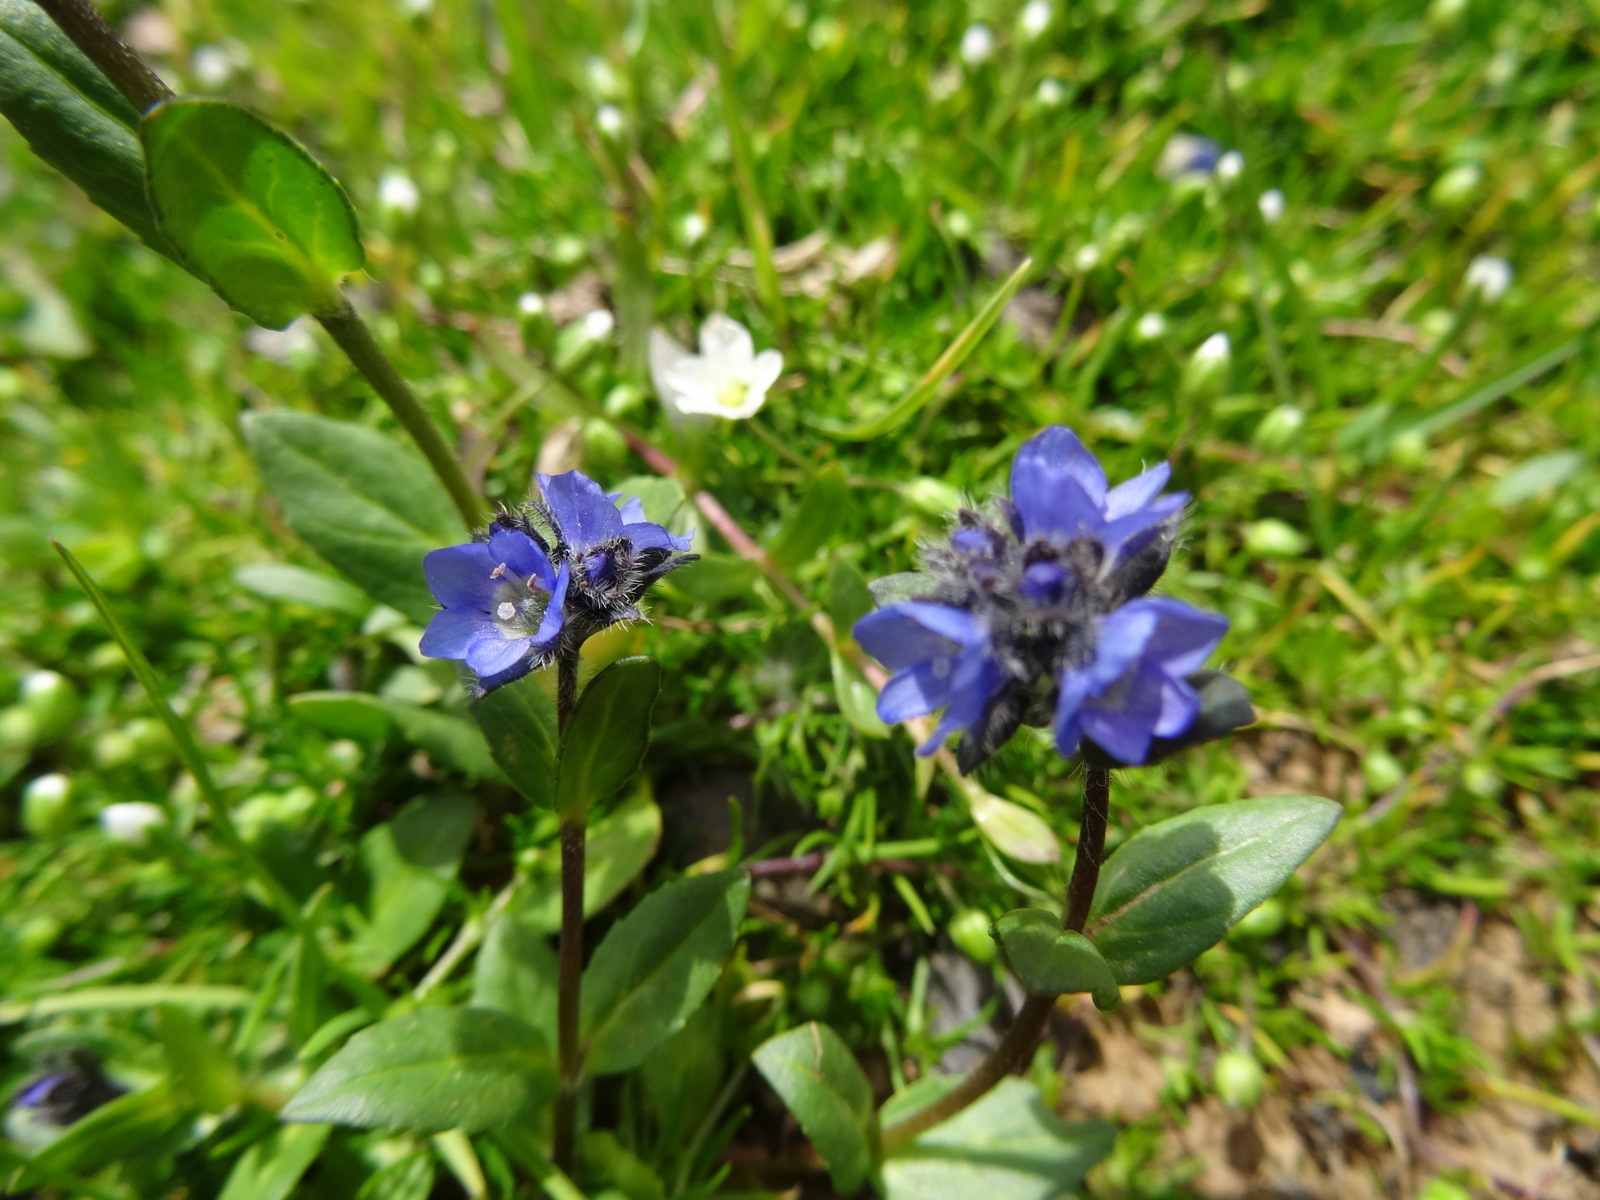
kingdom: Plantae
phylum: Tracheophyta
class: Magnoliopsida
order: Lamiales
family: Plantaginaceae
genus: Veronica
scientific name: Veronica alpina
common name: Alpine speedwell
